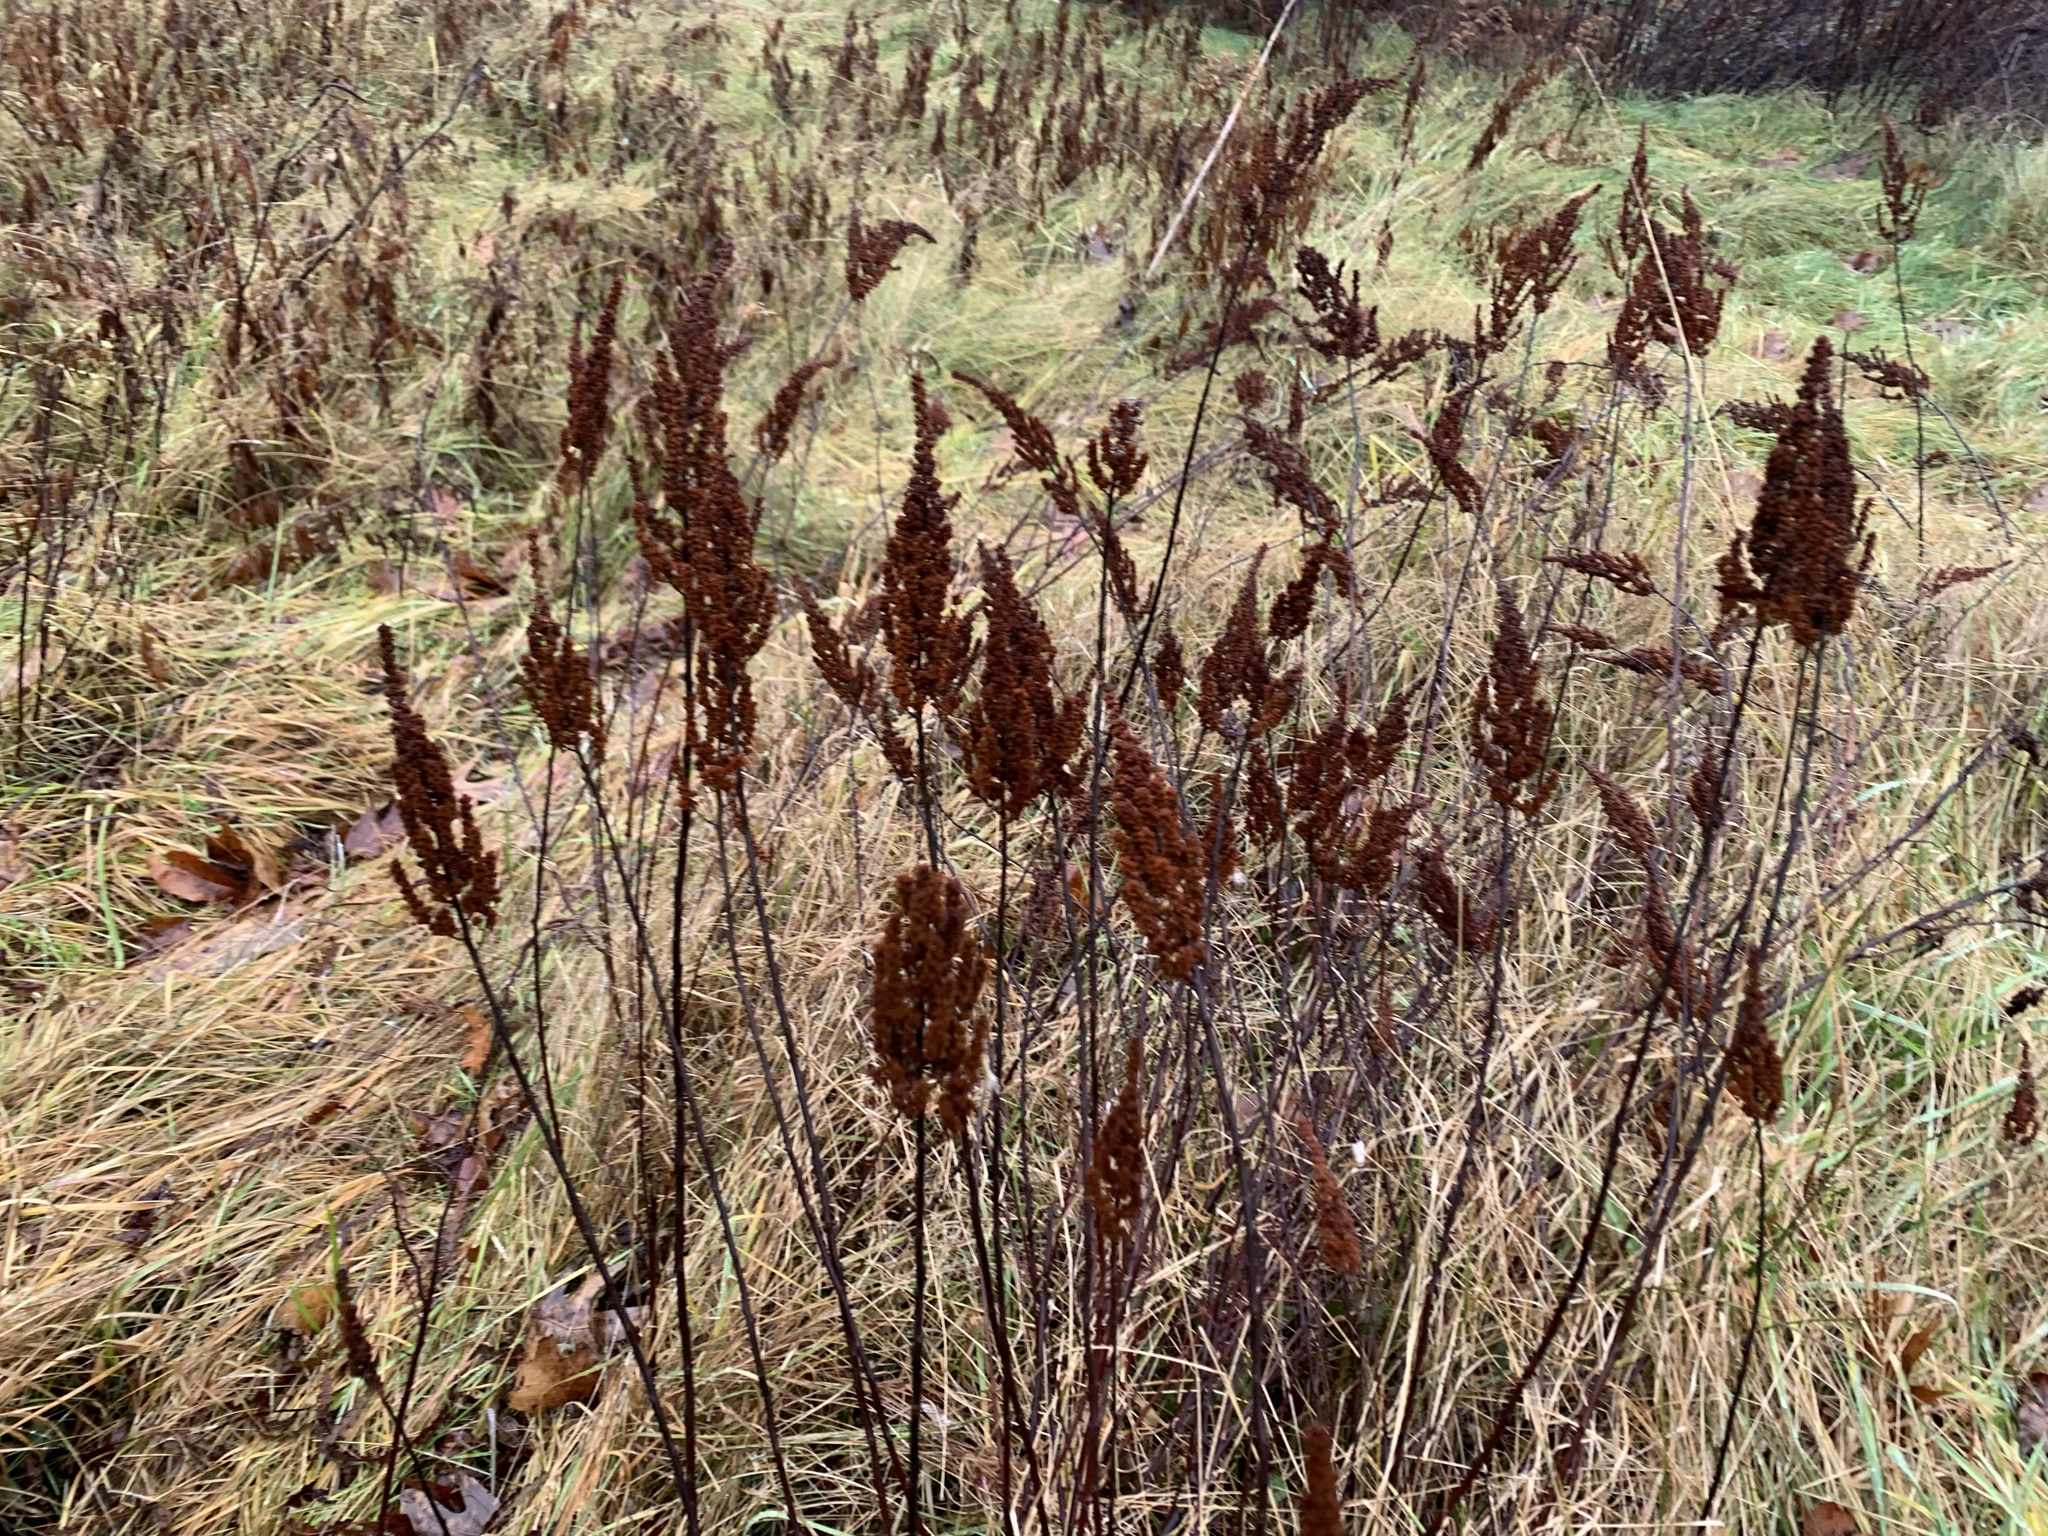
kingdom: Plantae
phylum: Tracheophyta
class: Magnoliopsida
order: Rosales
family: Rosaceae
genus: Spiraea
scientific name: Spiraea tomentosa
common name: Hardhack
